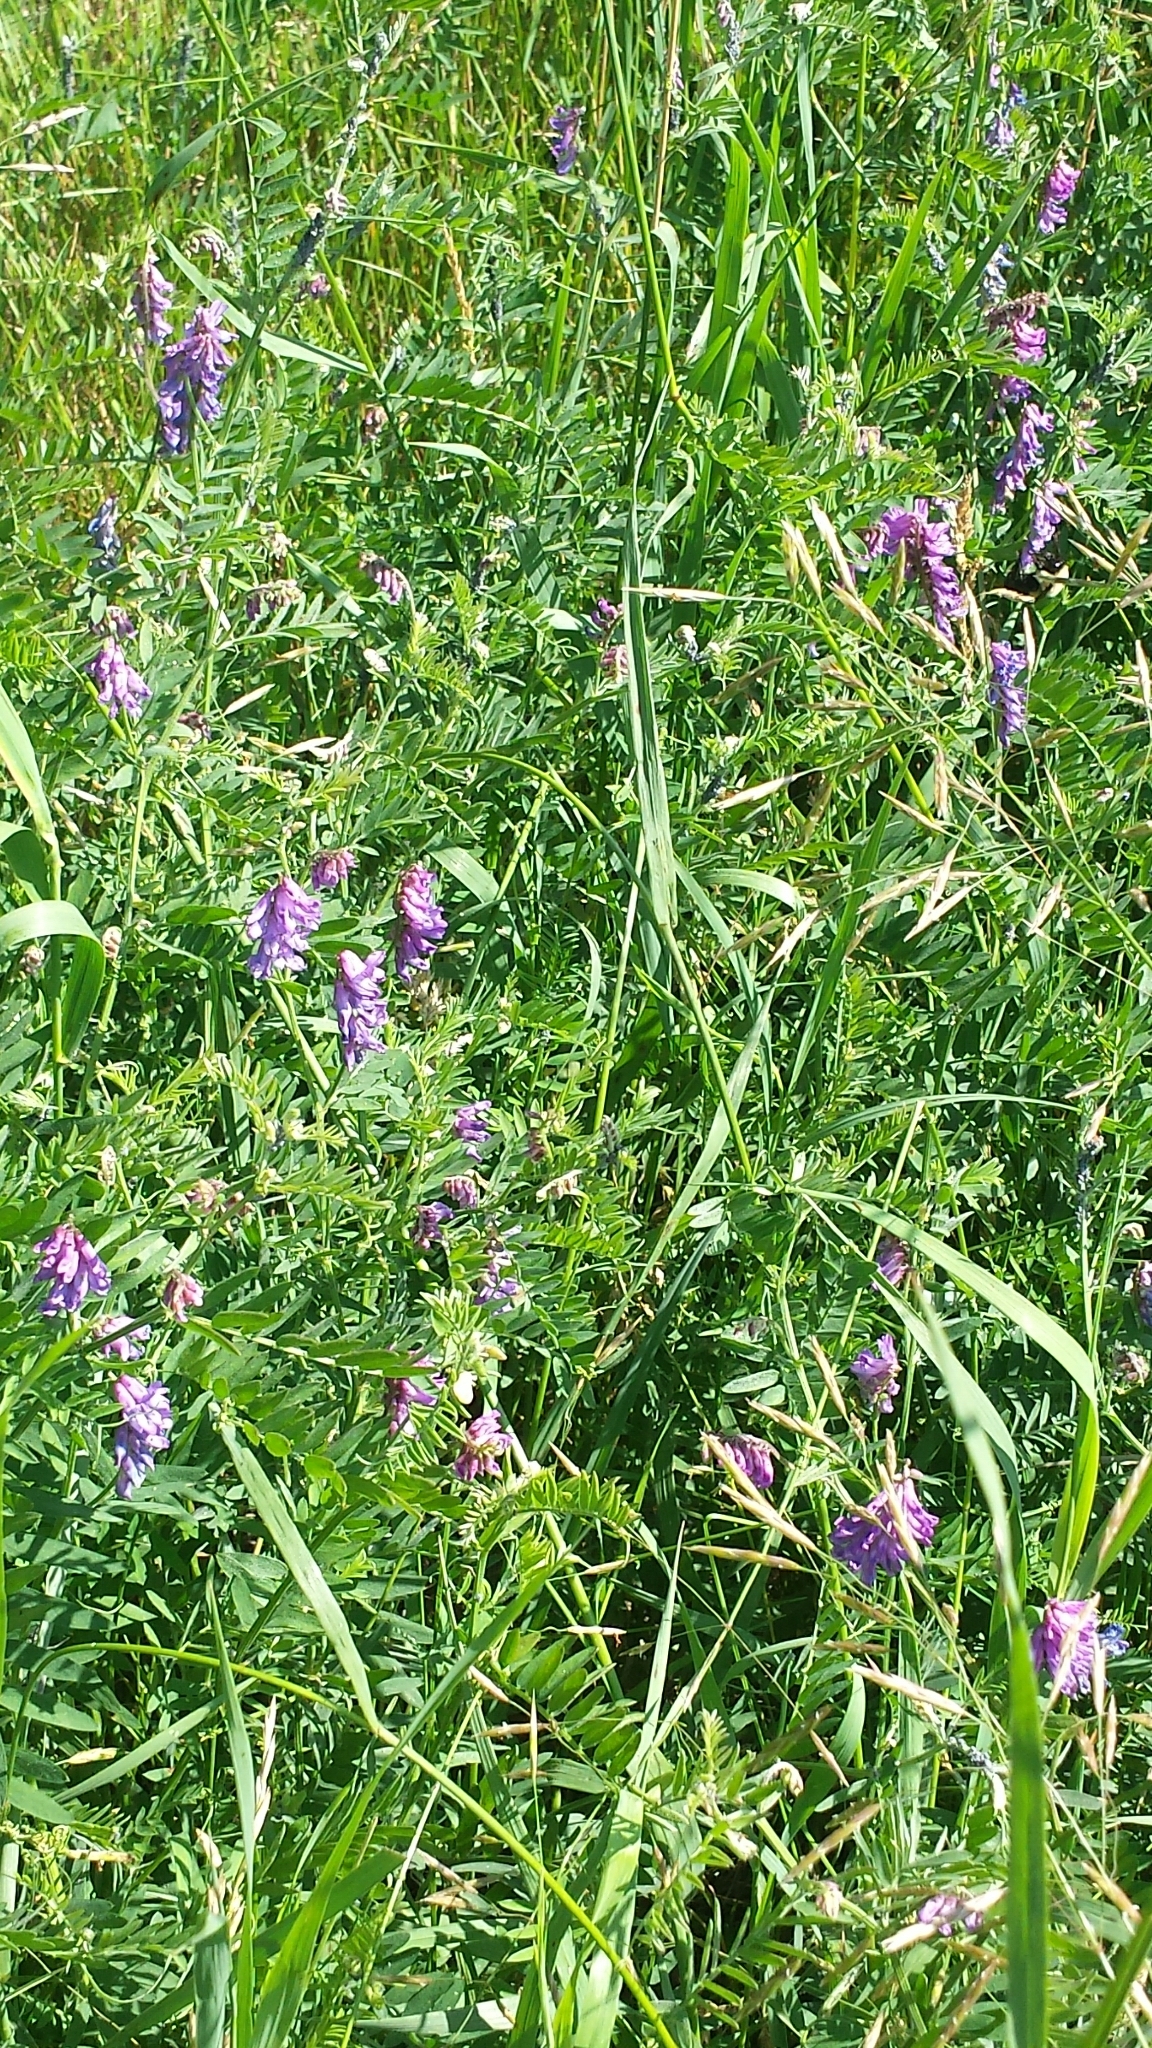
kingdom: Plantae
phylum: Tracheophyta
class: Magnoliopsida
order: Fabales
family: Fabaceae
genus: Vicia
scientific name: Vicia cracca
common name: Bird vetch
